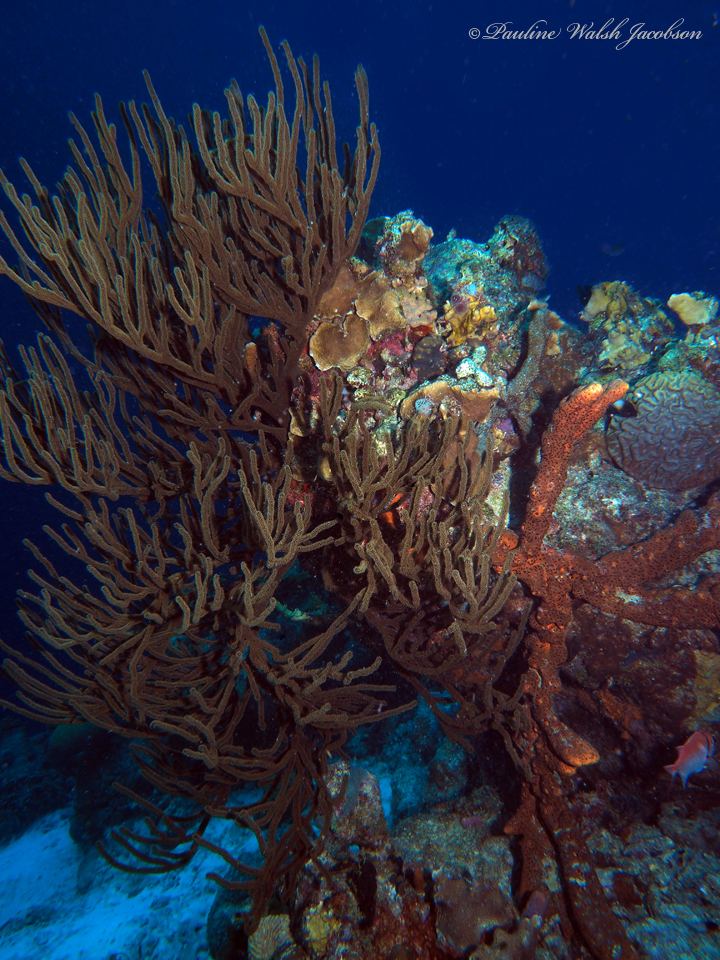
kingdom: Animalia
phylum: Cnidaria
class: Anthozoa
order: Malacalcyonacea
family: Plexauridae
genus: Plexaura
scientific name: Plexaura homomalla
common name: Black sea rod
